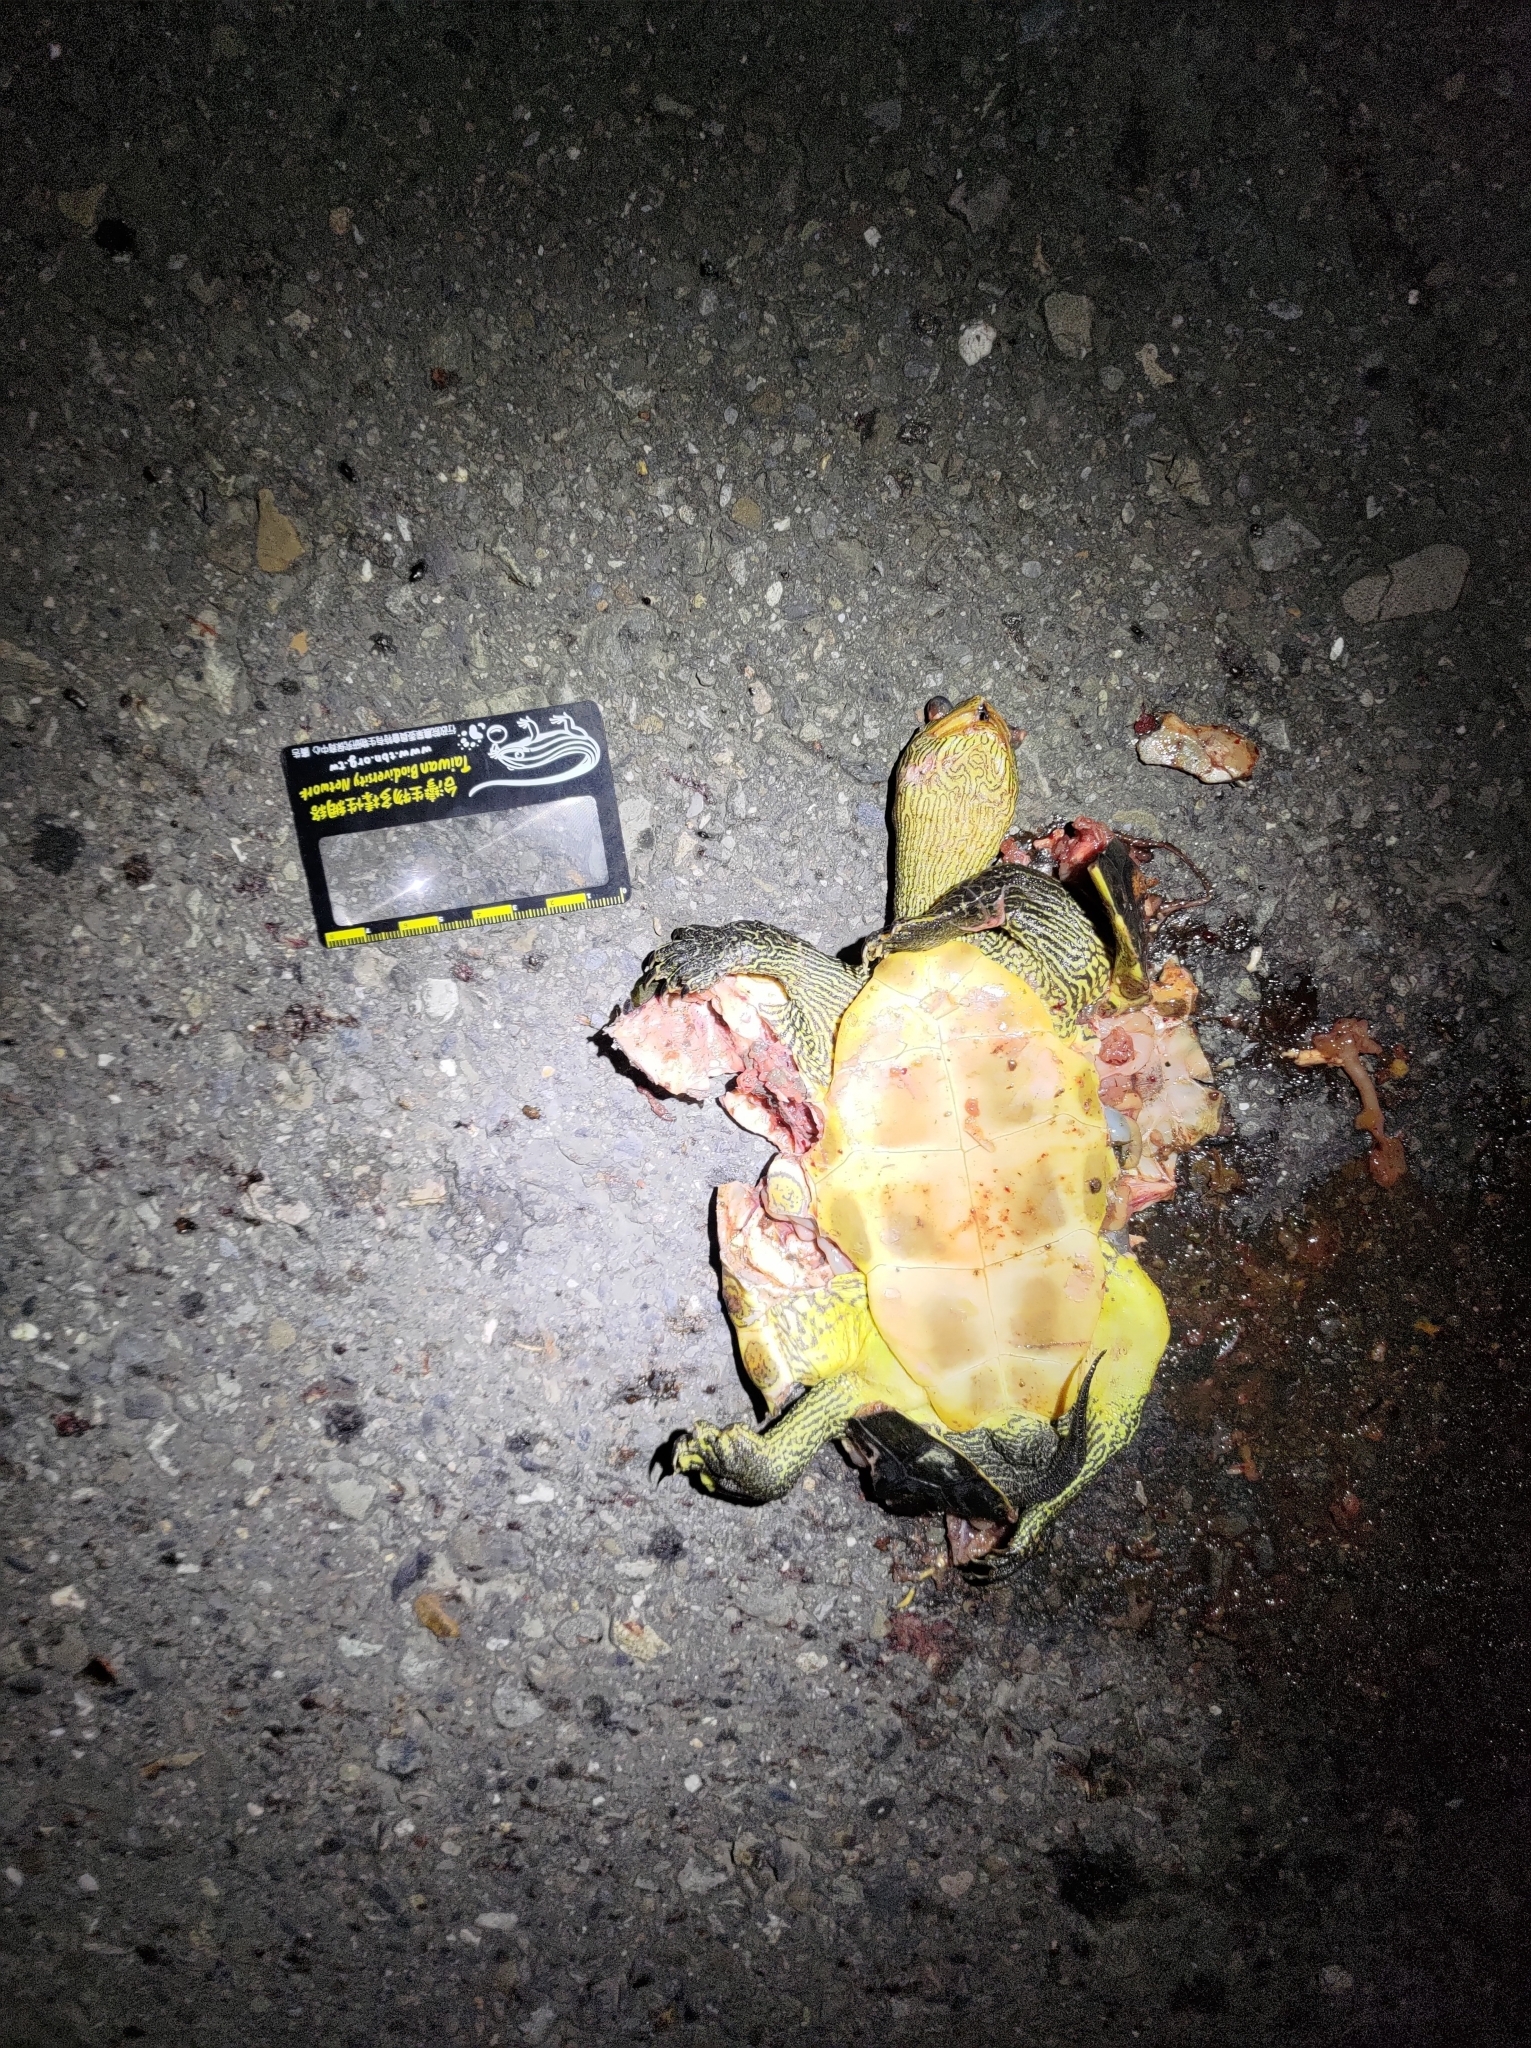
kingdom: Animalia
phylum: Chordata
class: Testudines
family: Geoemydidae
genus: Mauremys
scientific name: Mauremys sinensis
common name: Chinese stripe-necked turtle
